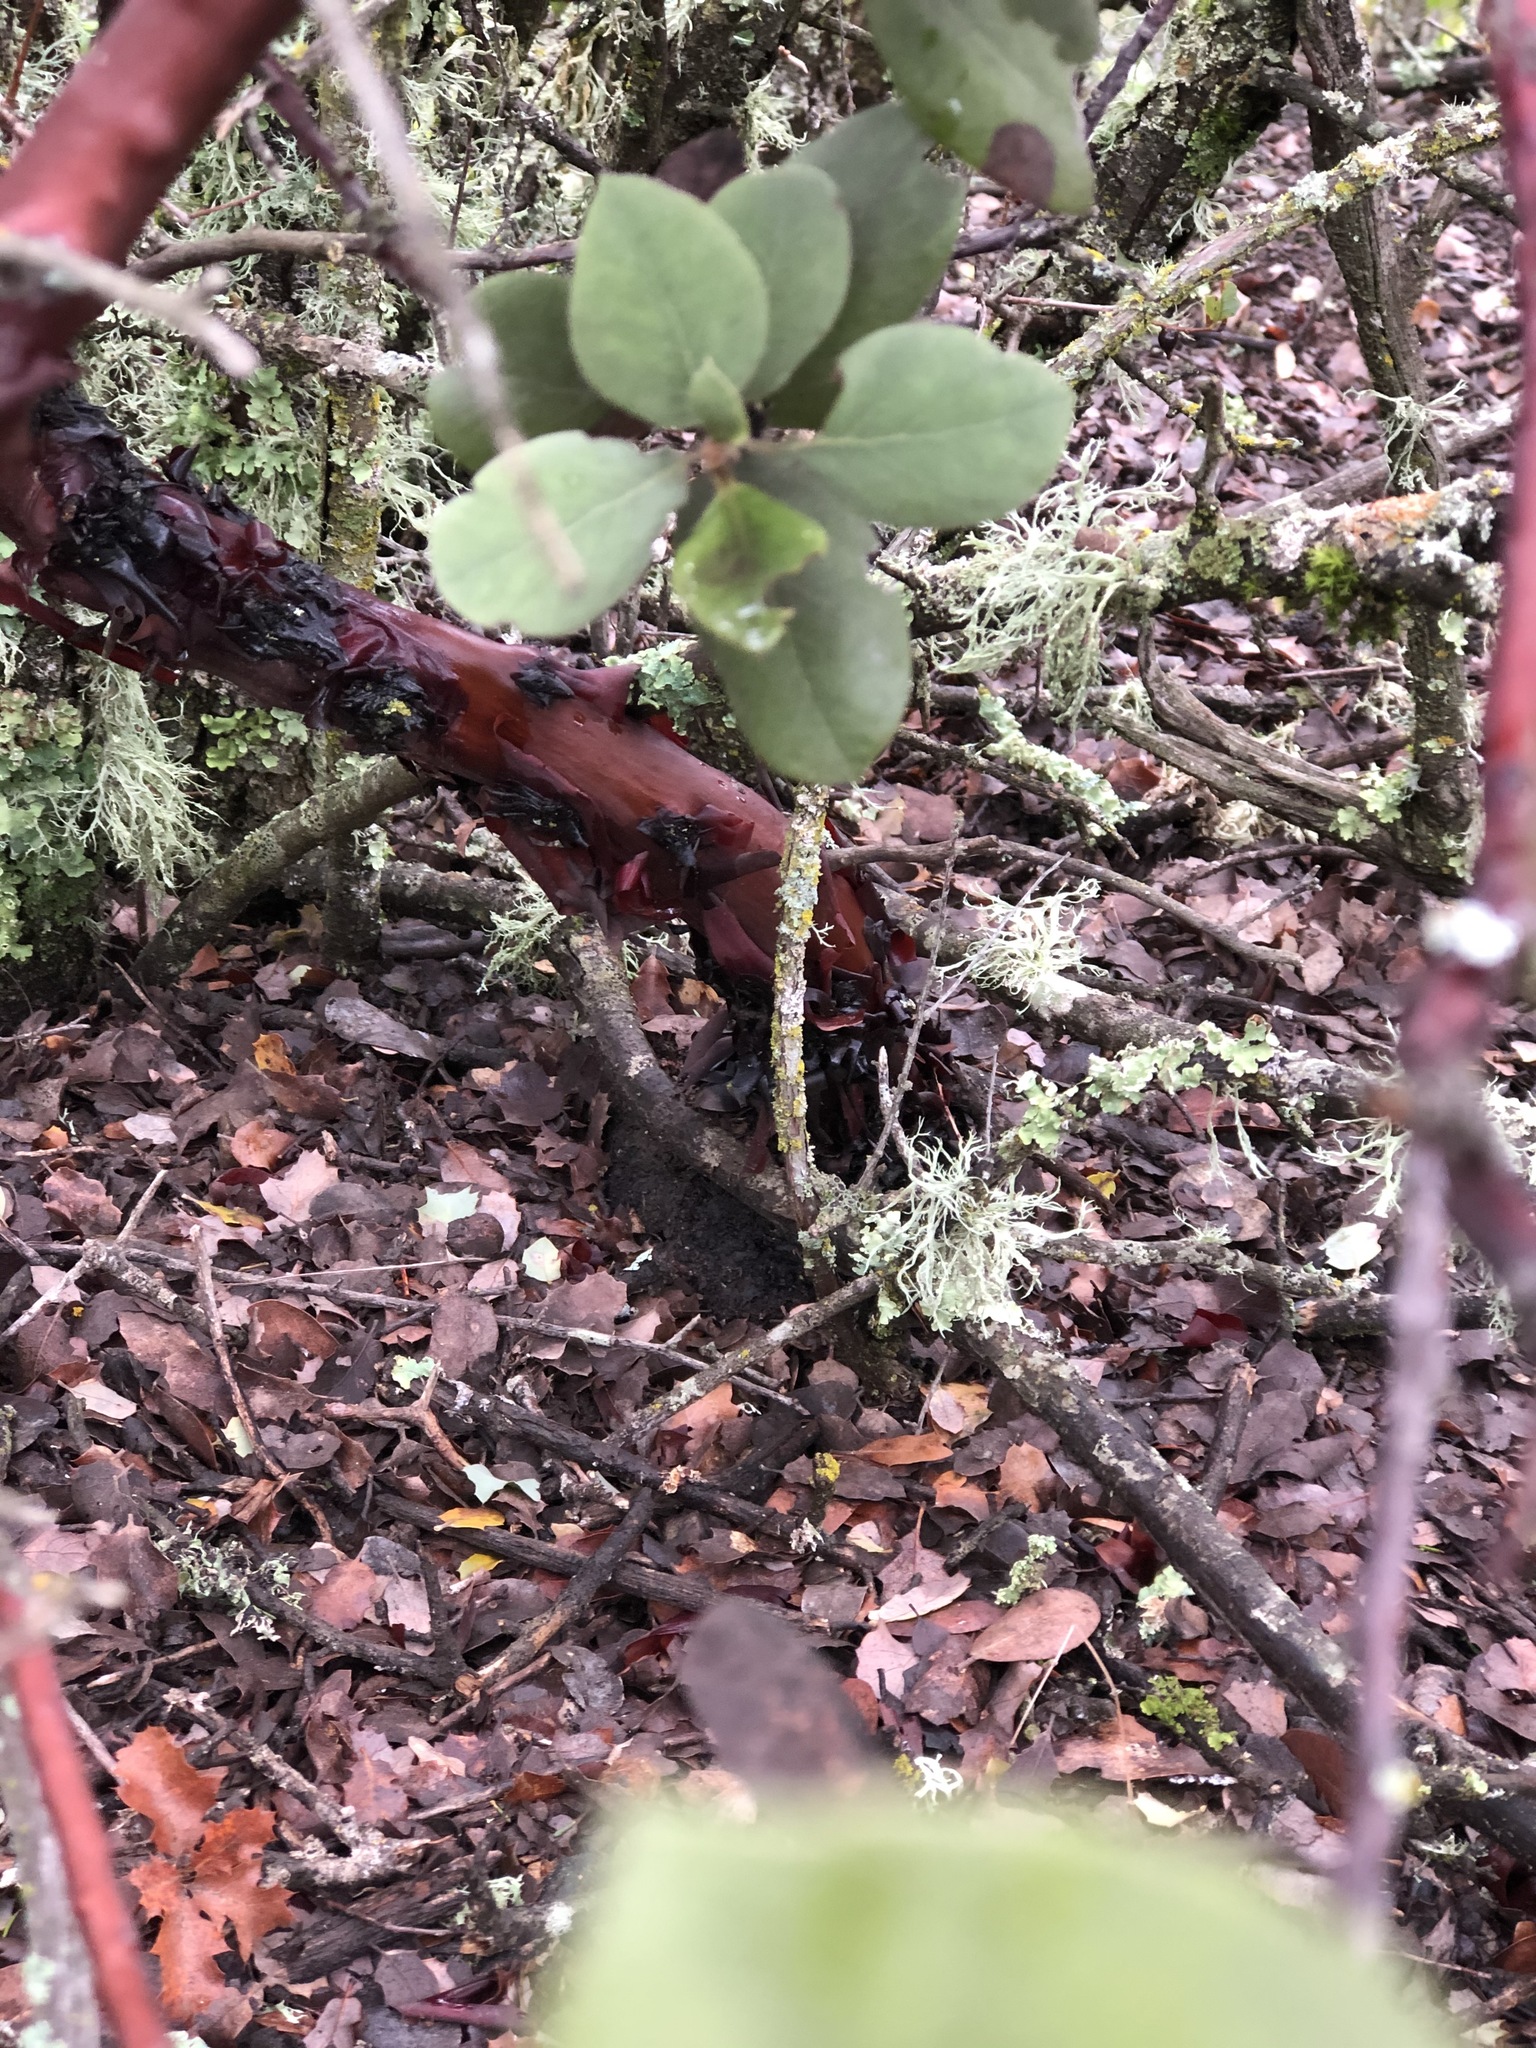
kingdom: Plantae
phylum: Tracheophyta
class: Magnoliopsida
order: Ericales
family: Ericaceae
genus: Arctostaphylos
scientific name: Arctostaphylos glandulosa
